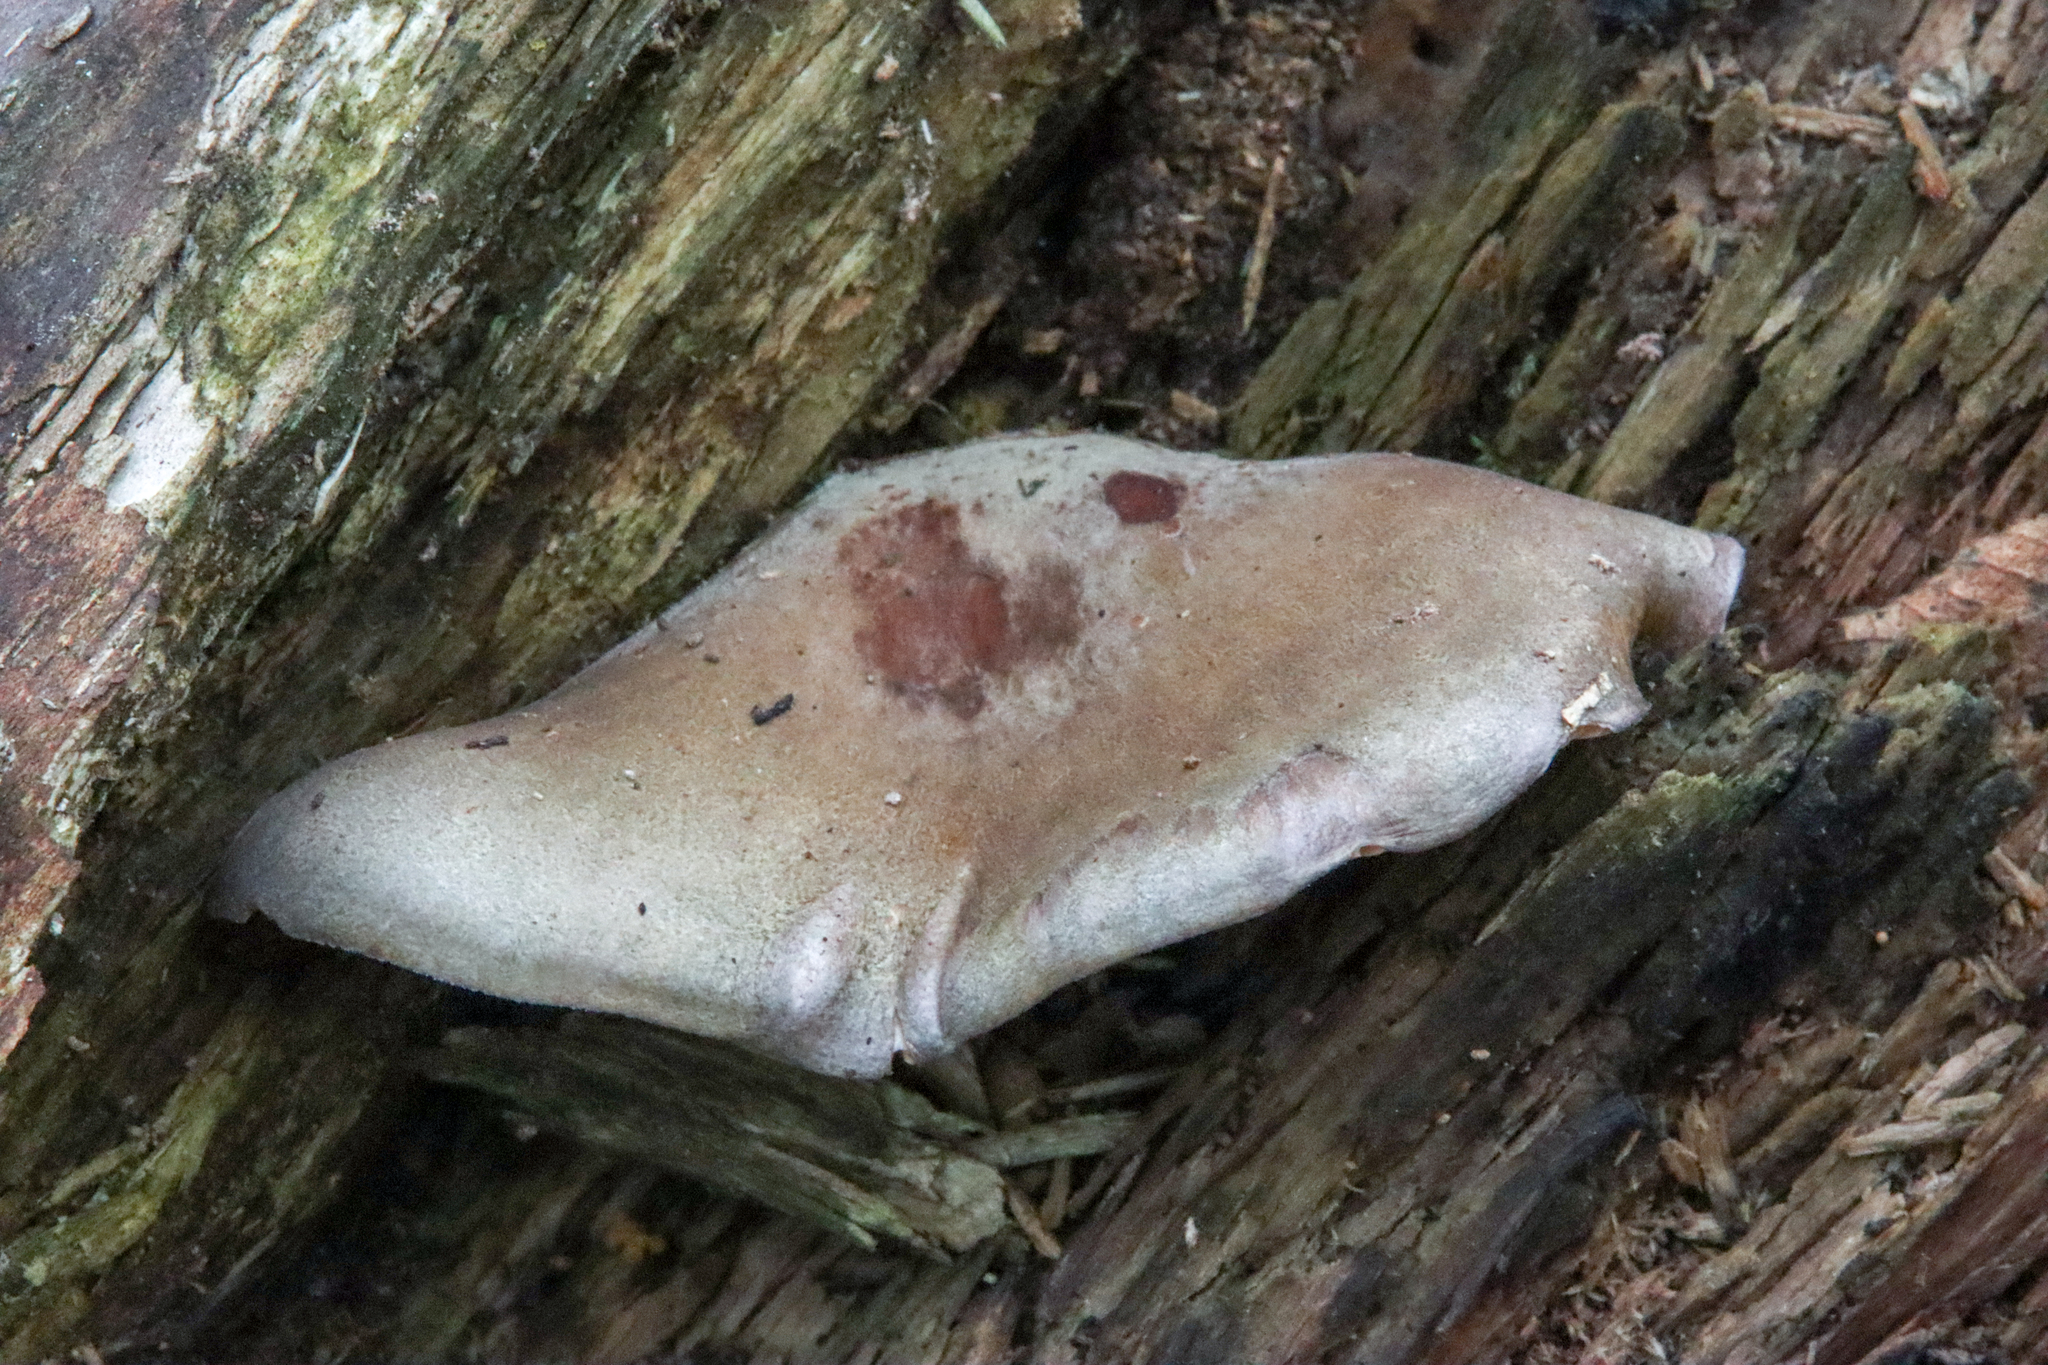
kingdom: Fungi
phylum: Basidiomycota
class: Agaricomycetes
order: Agaricales
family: Sarcomyxaceae
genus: Sarcomyxa
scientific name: Sarcomyxa serotina
